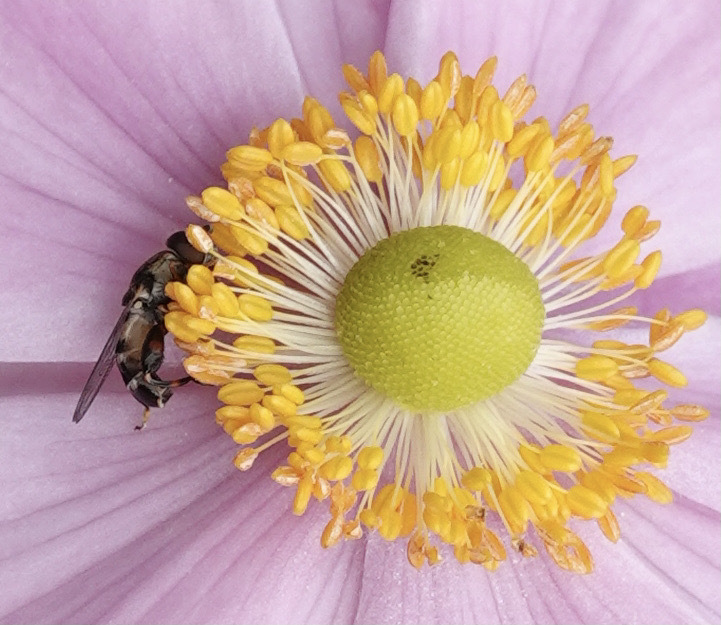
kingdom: Animalia
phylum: Arthropoda
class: Insecta
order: Diptera
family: Syrphidae
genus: Syritta
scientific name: Syritta pipiens
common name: Hover fly
